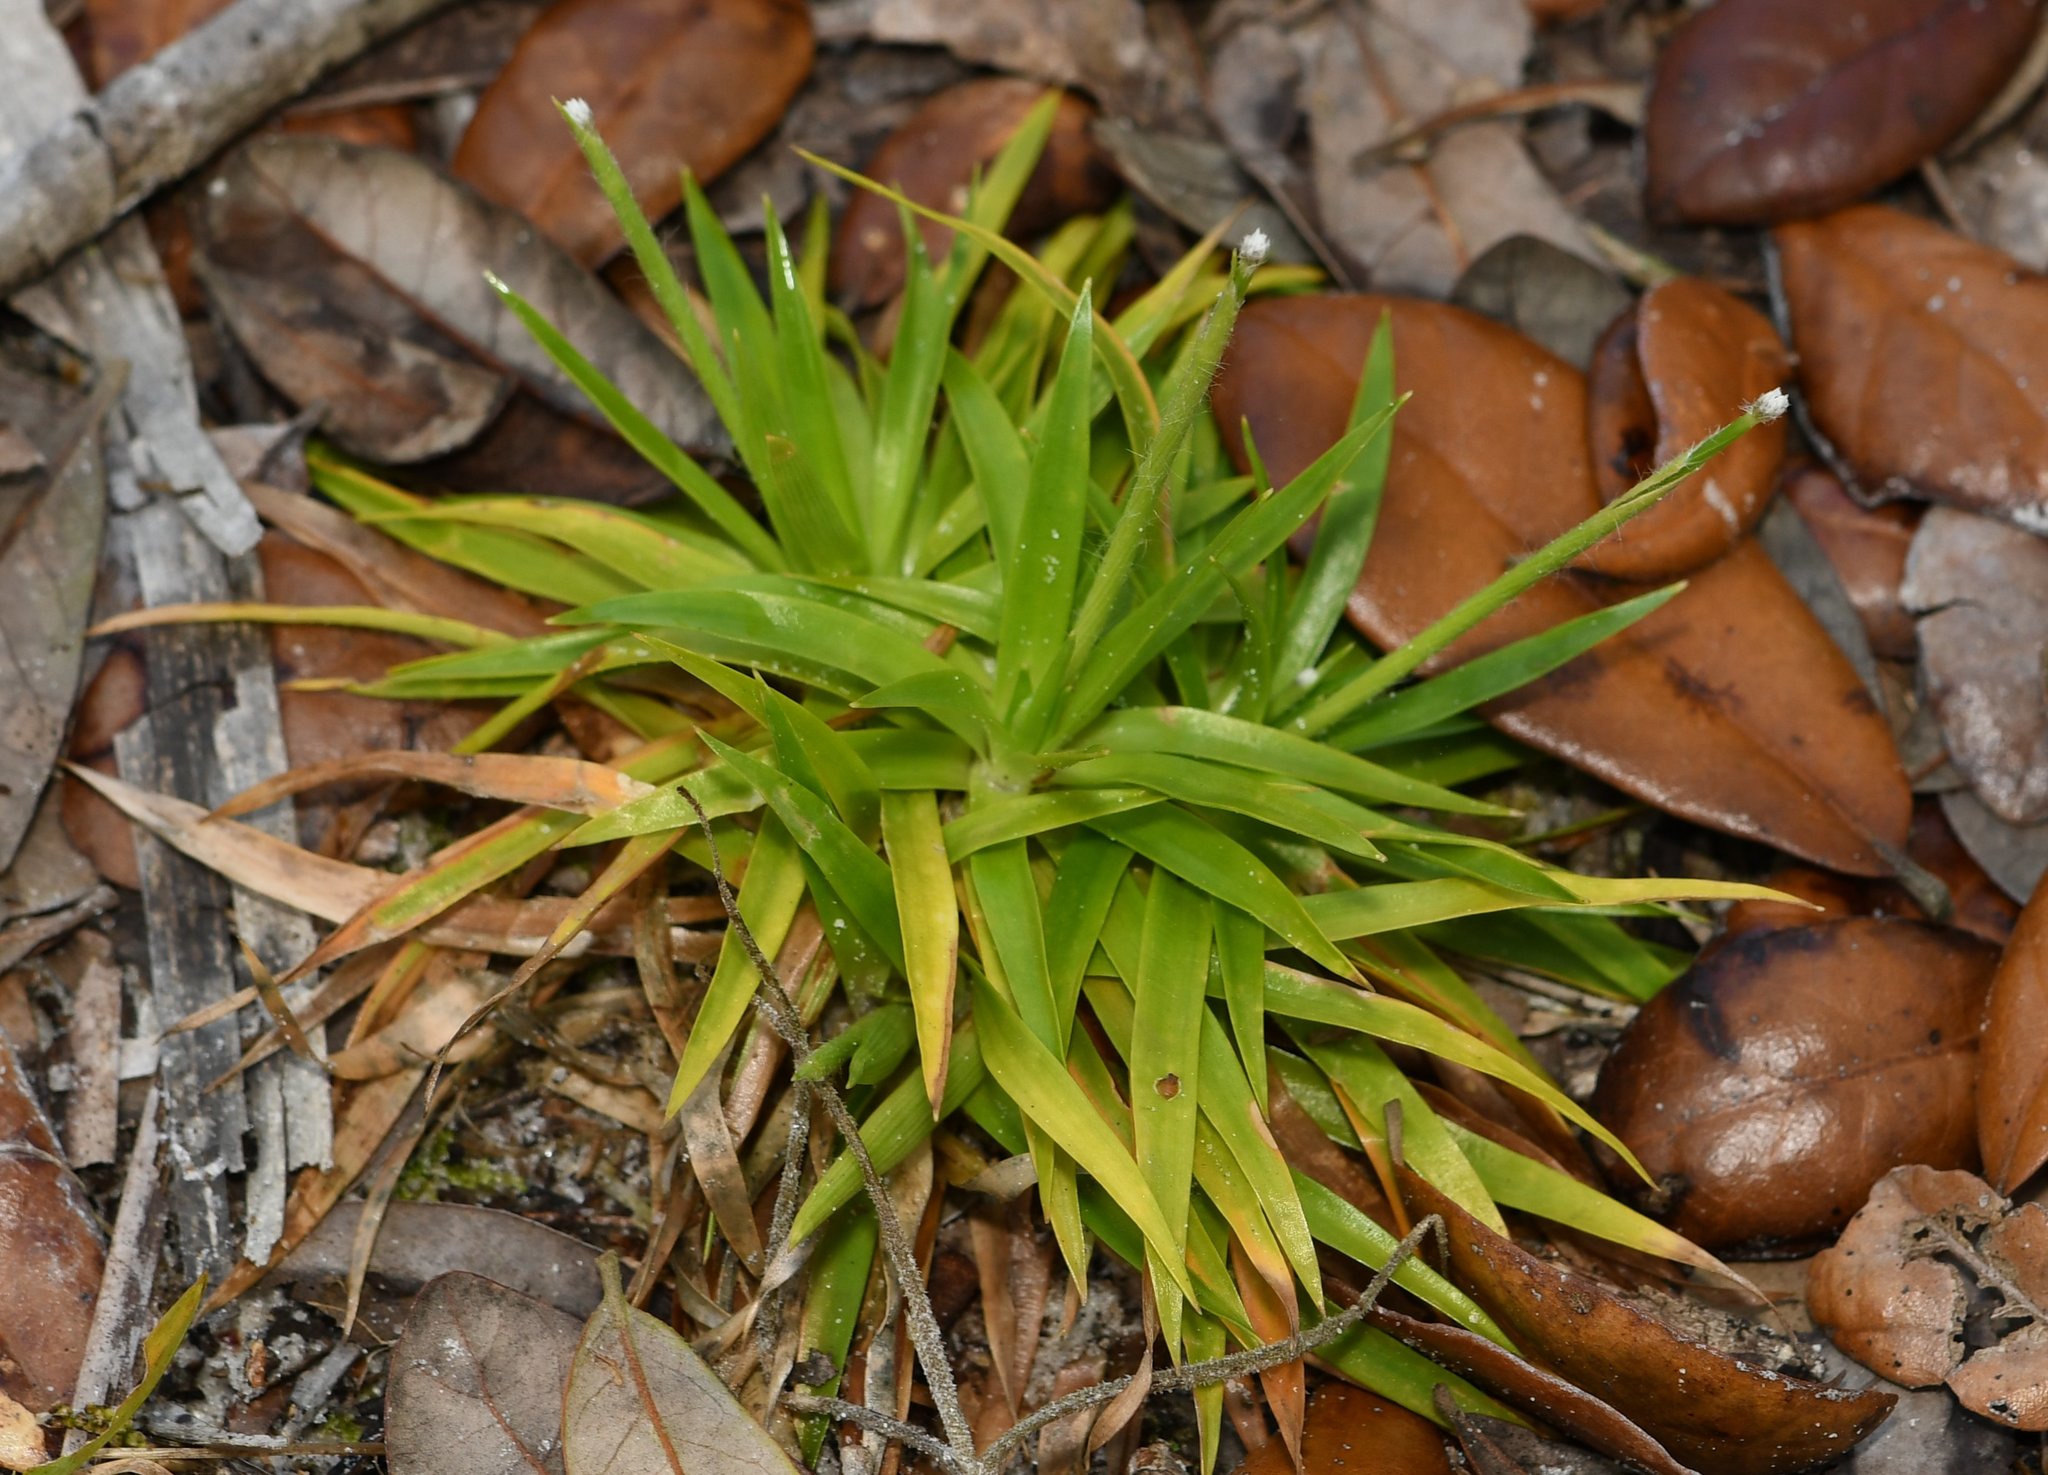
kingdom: Plantae
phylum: Tracheophyta
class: Liliopsida
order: Poales
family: Eriocaulaceae
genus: Paepalanthus
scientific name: Paepalanthus anceps
